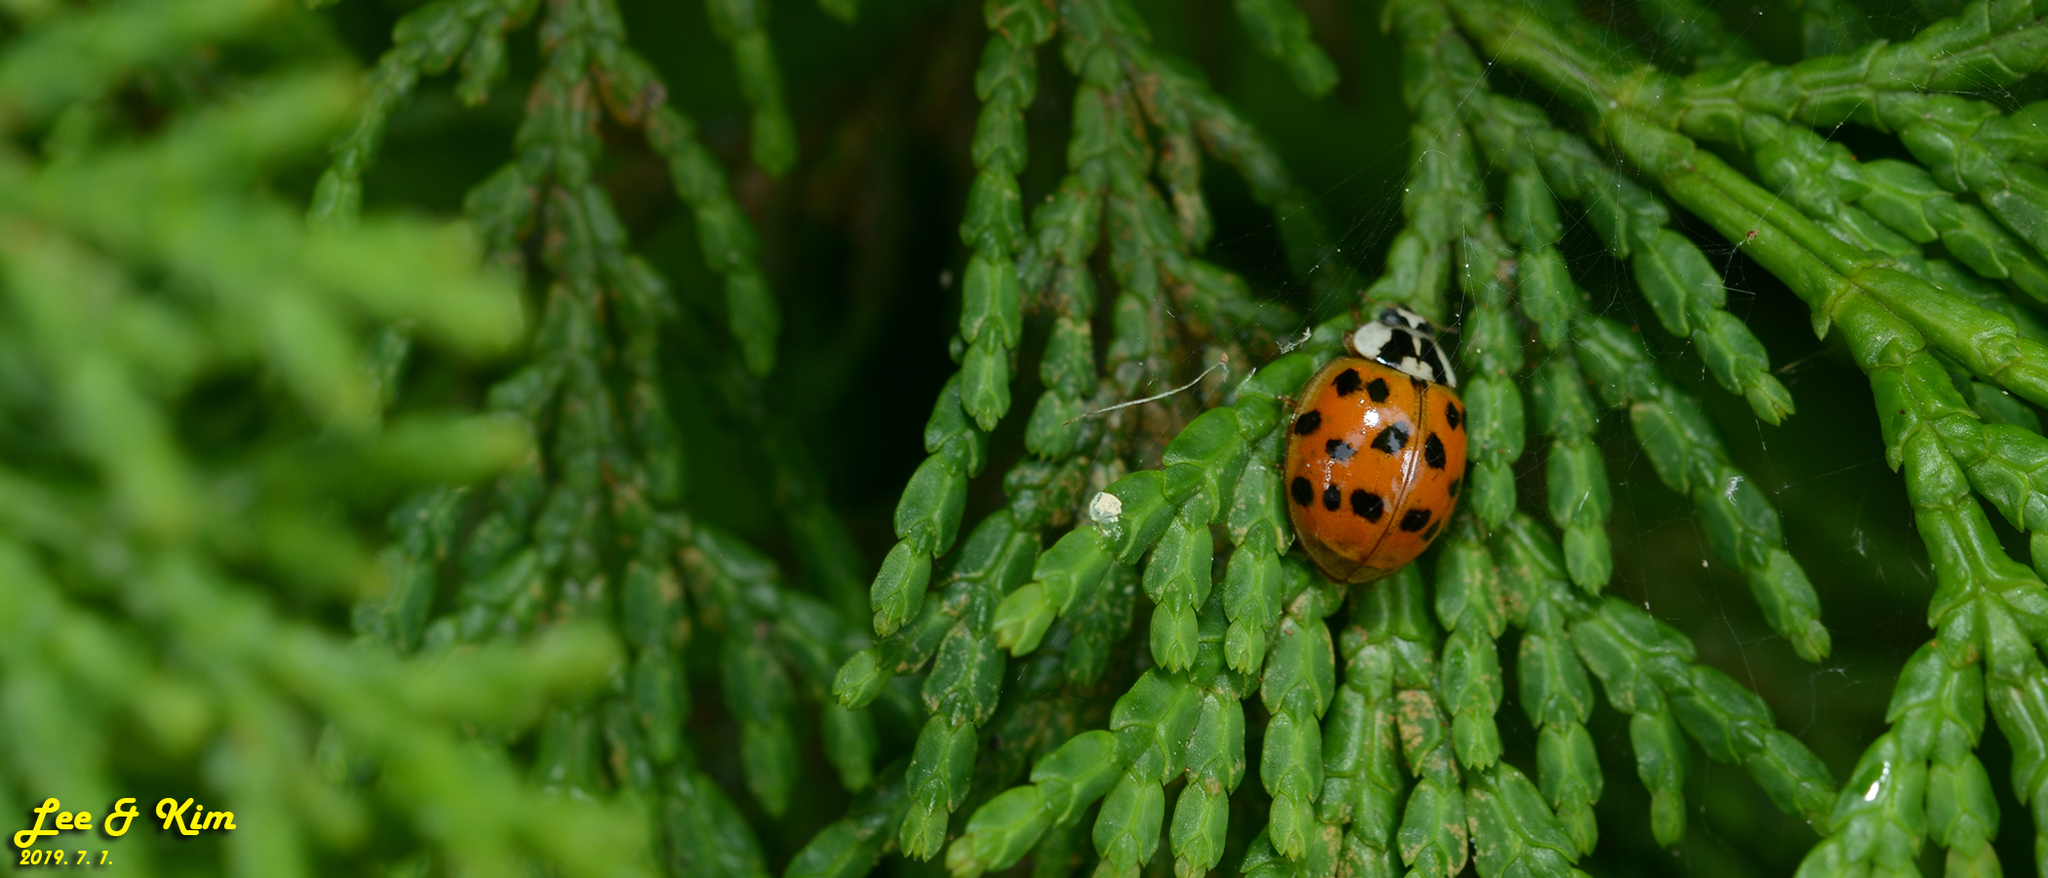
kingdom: Animalia
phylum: Arthropoda
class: Insecta
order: Coleoptera
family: Coccinellidae
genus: Harmonia
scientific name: Harmonia axyridis
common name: Harlequin ladybird
